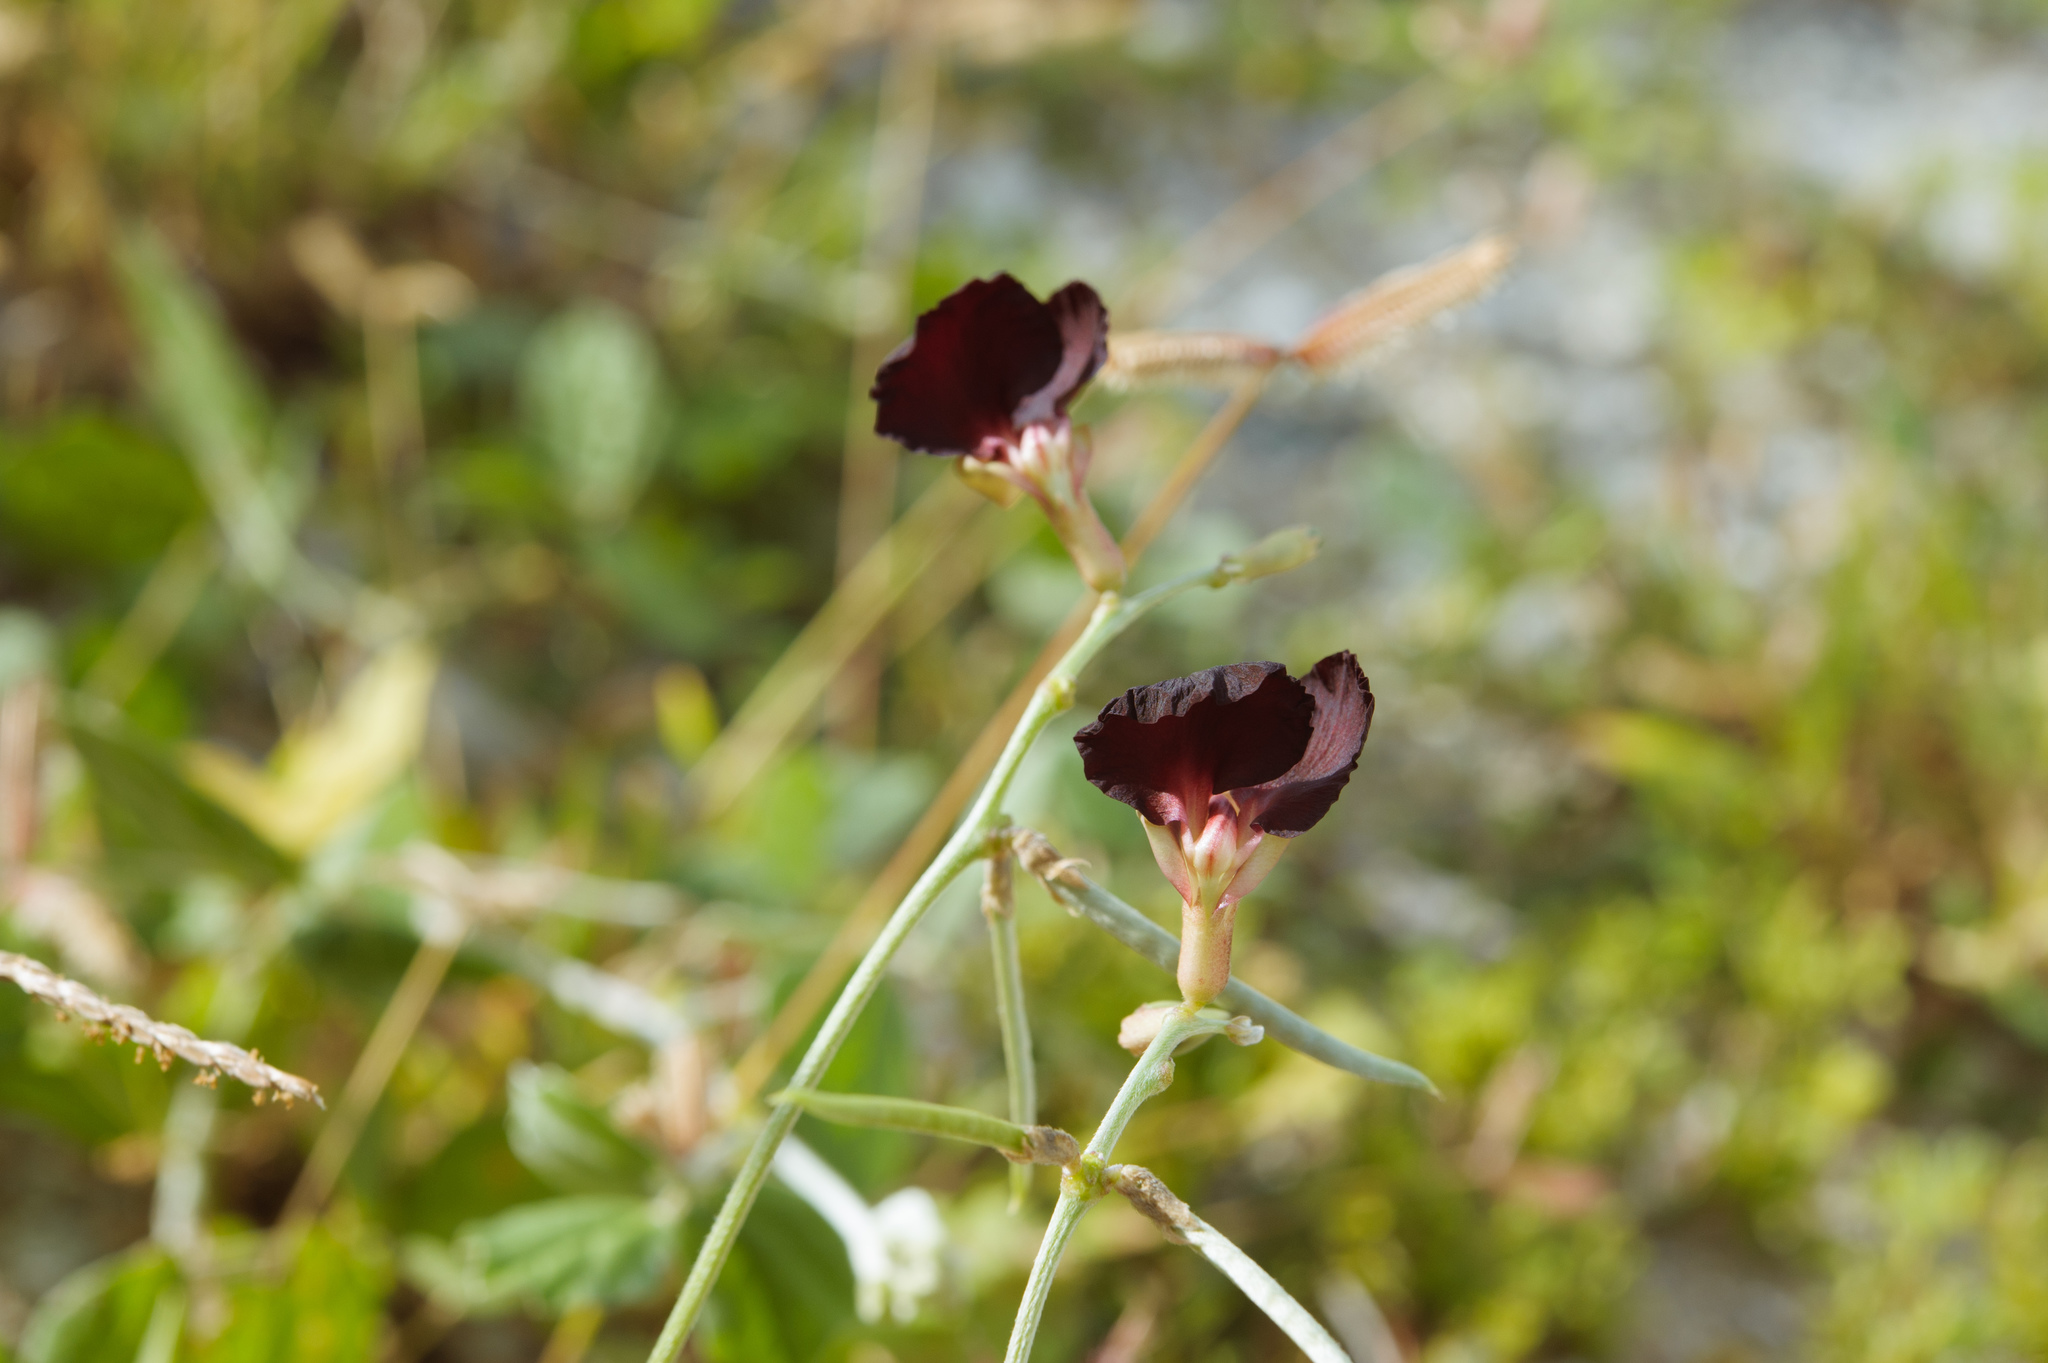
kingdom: Plantae
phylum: Tracheophyta
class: Magnoliopsida
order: Fabales
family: Fabaceae
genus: Macroptilium
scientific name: Macroptilium atropurpureum
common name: Purple bushbean
